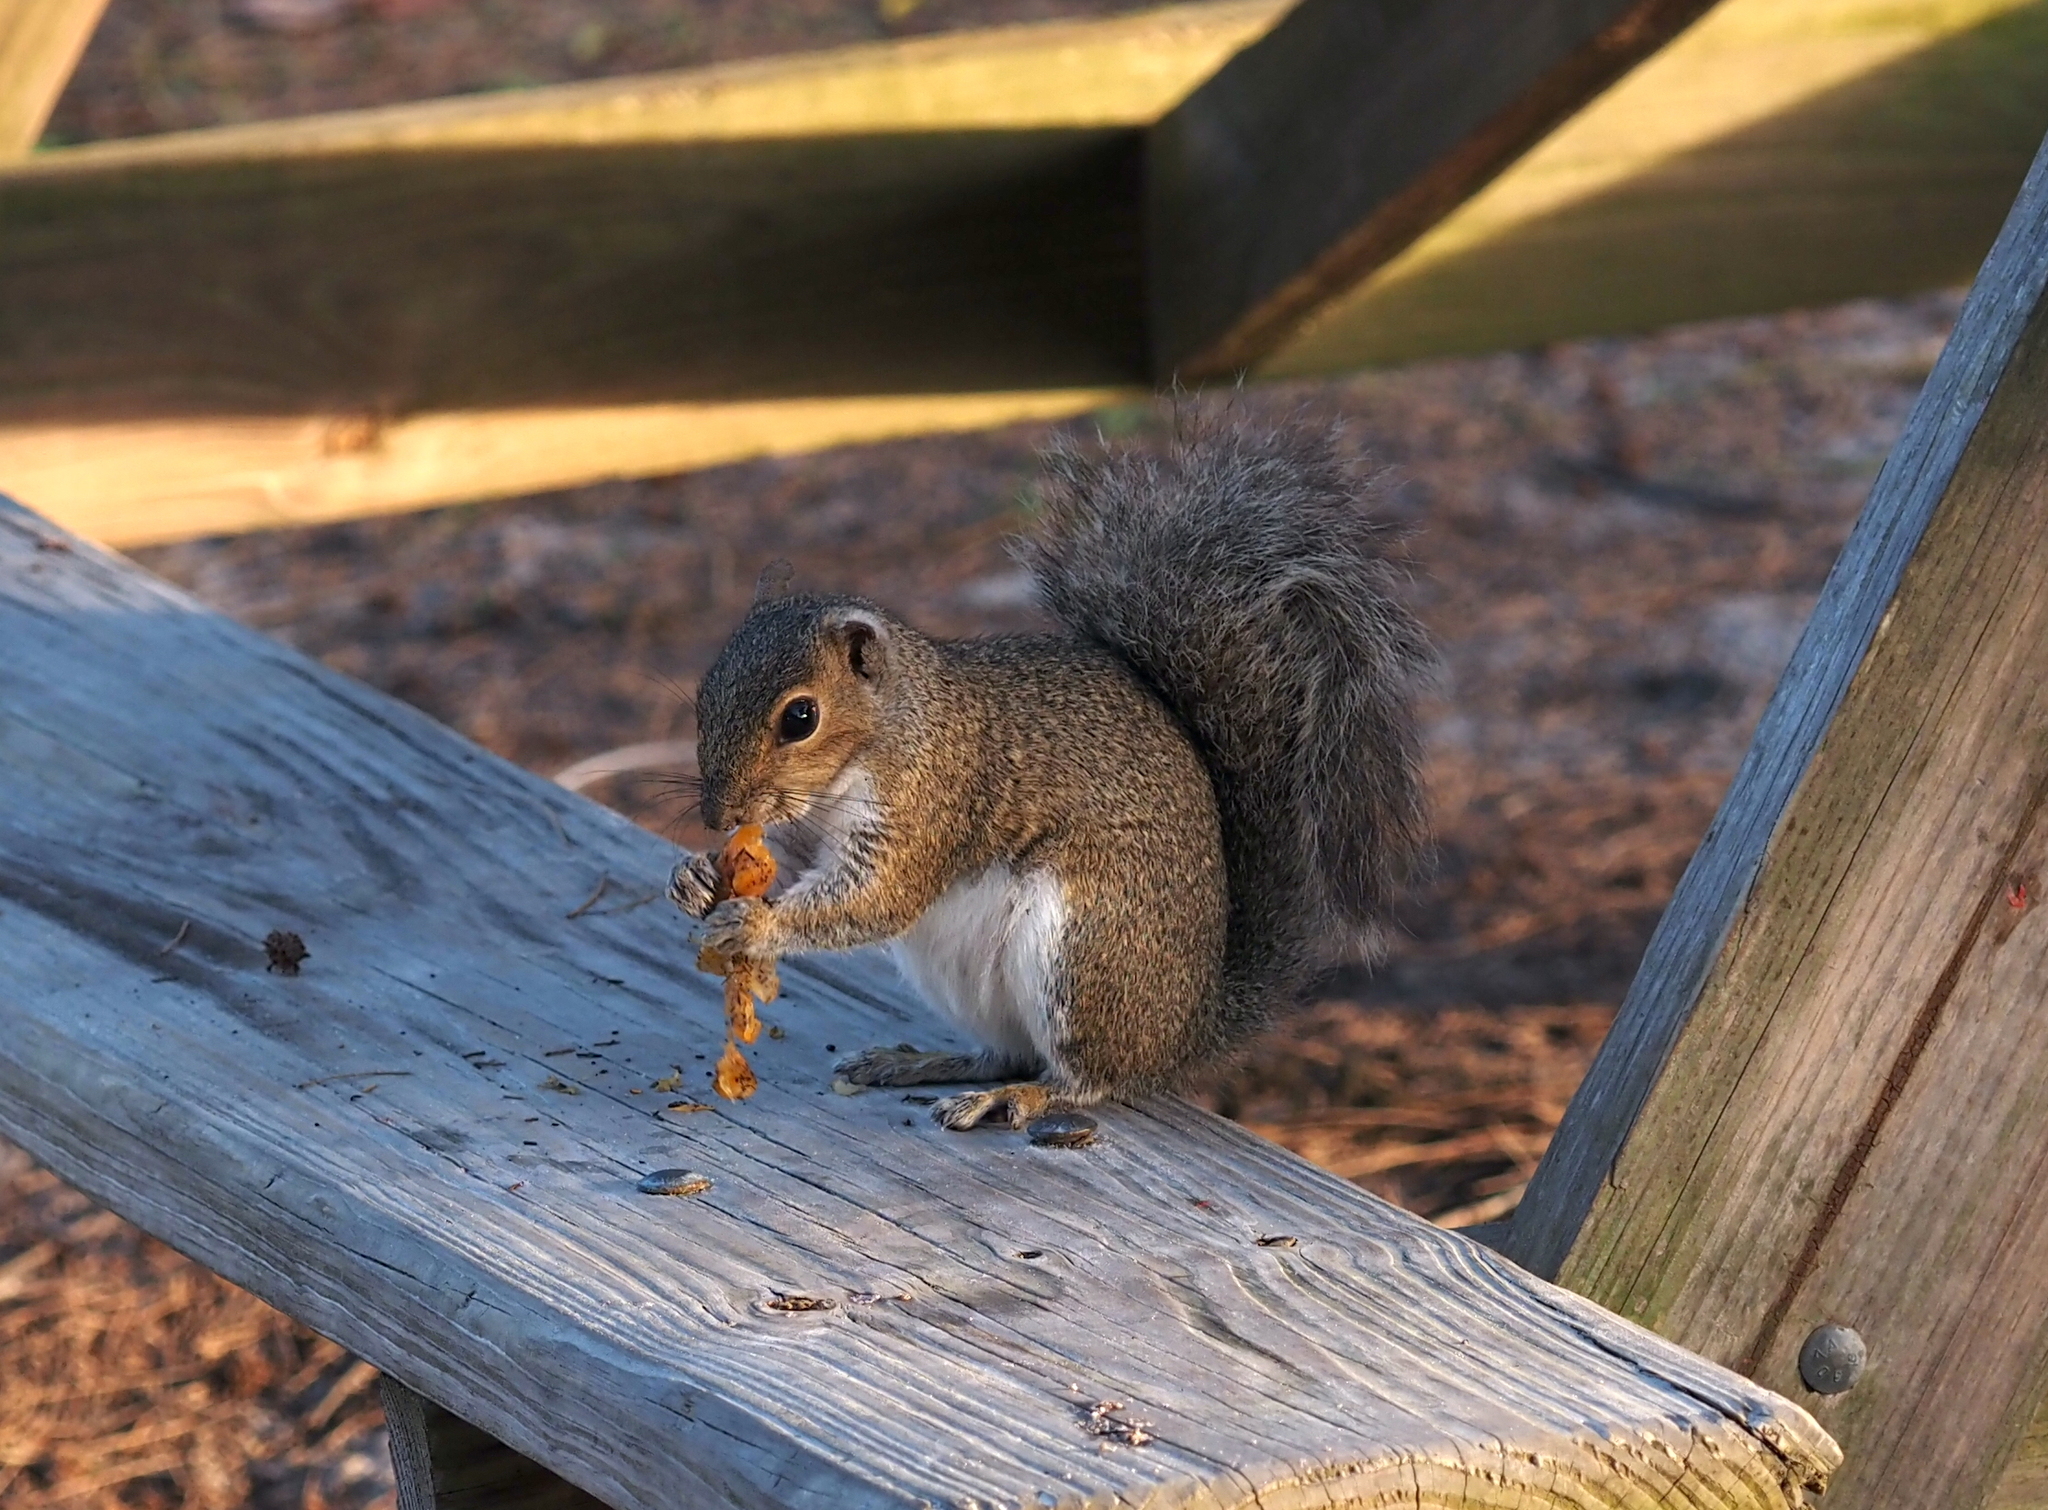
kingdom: Animalia
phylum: Chordata
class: Mammalia
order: Rodentia
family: Sciuridae
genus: Sciurus
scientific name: Sciurus carolinensis
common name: Eastern gray squirrel
